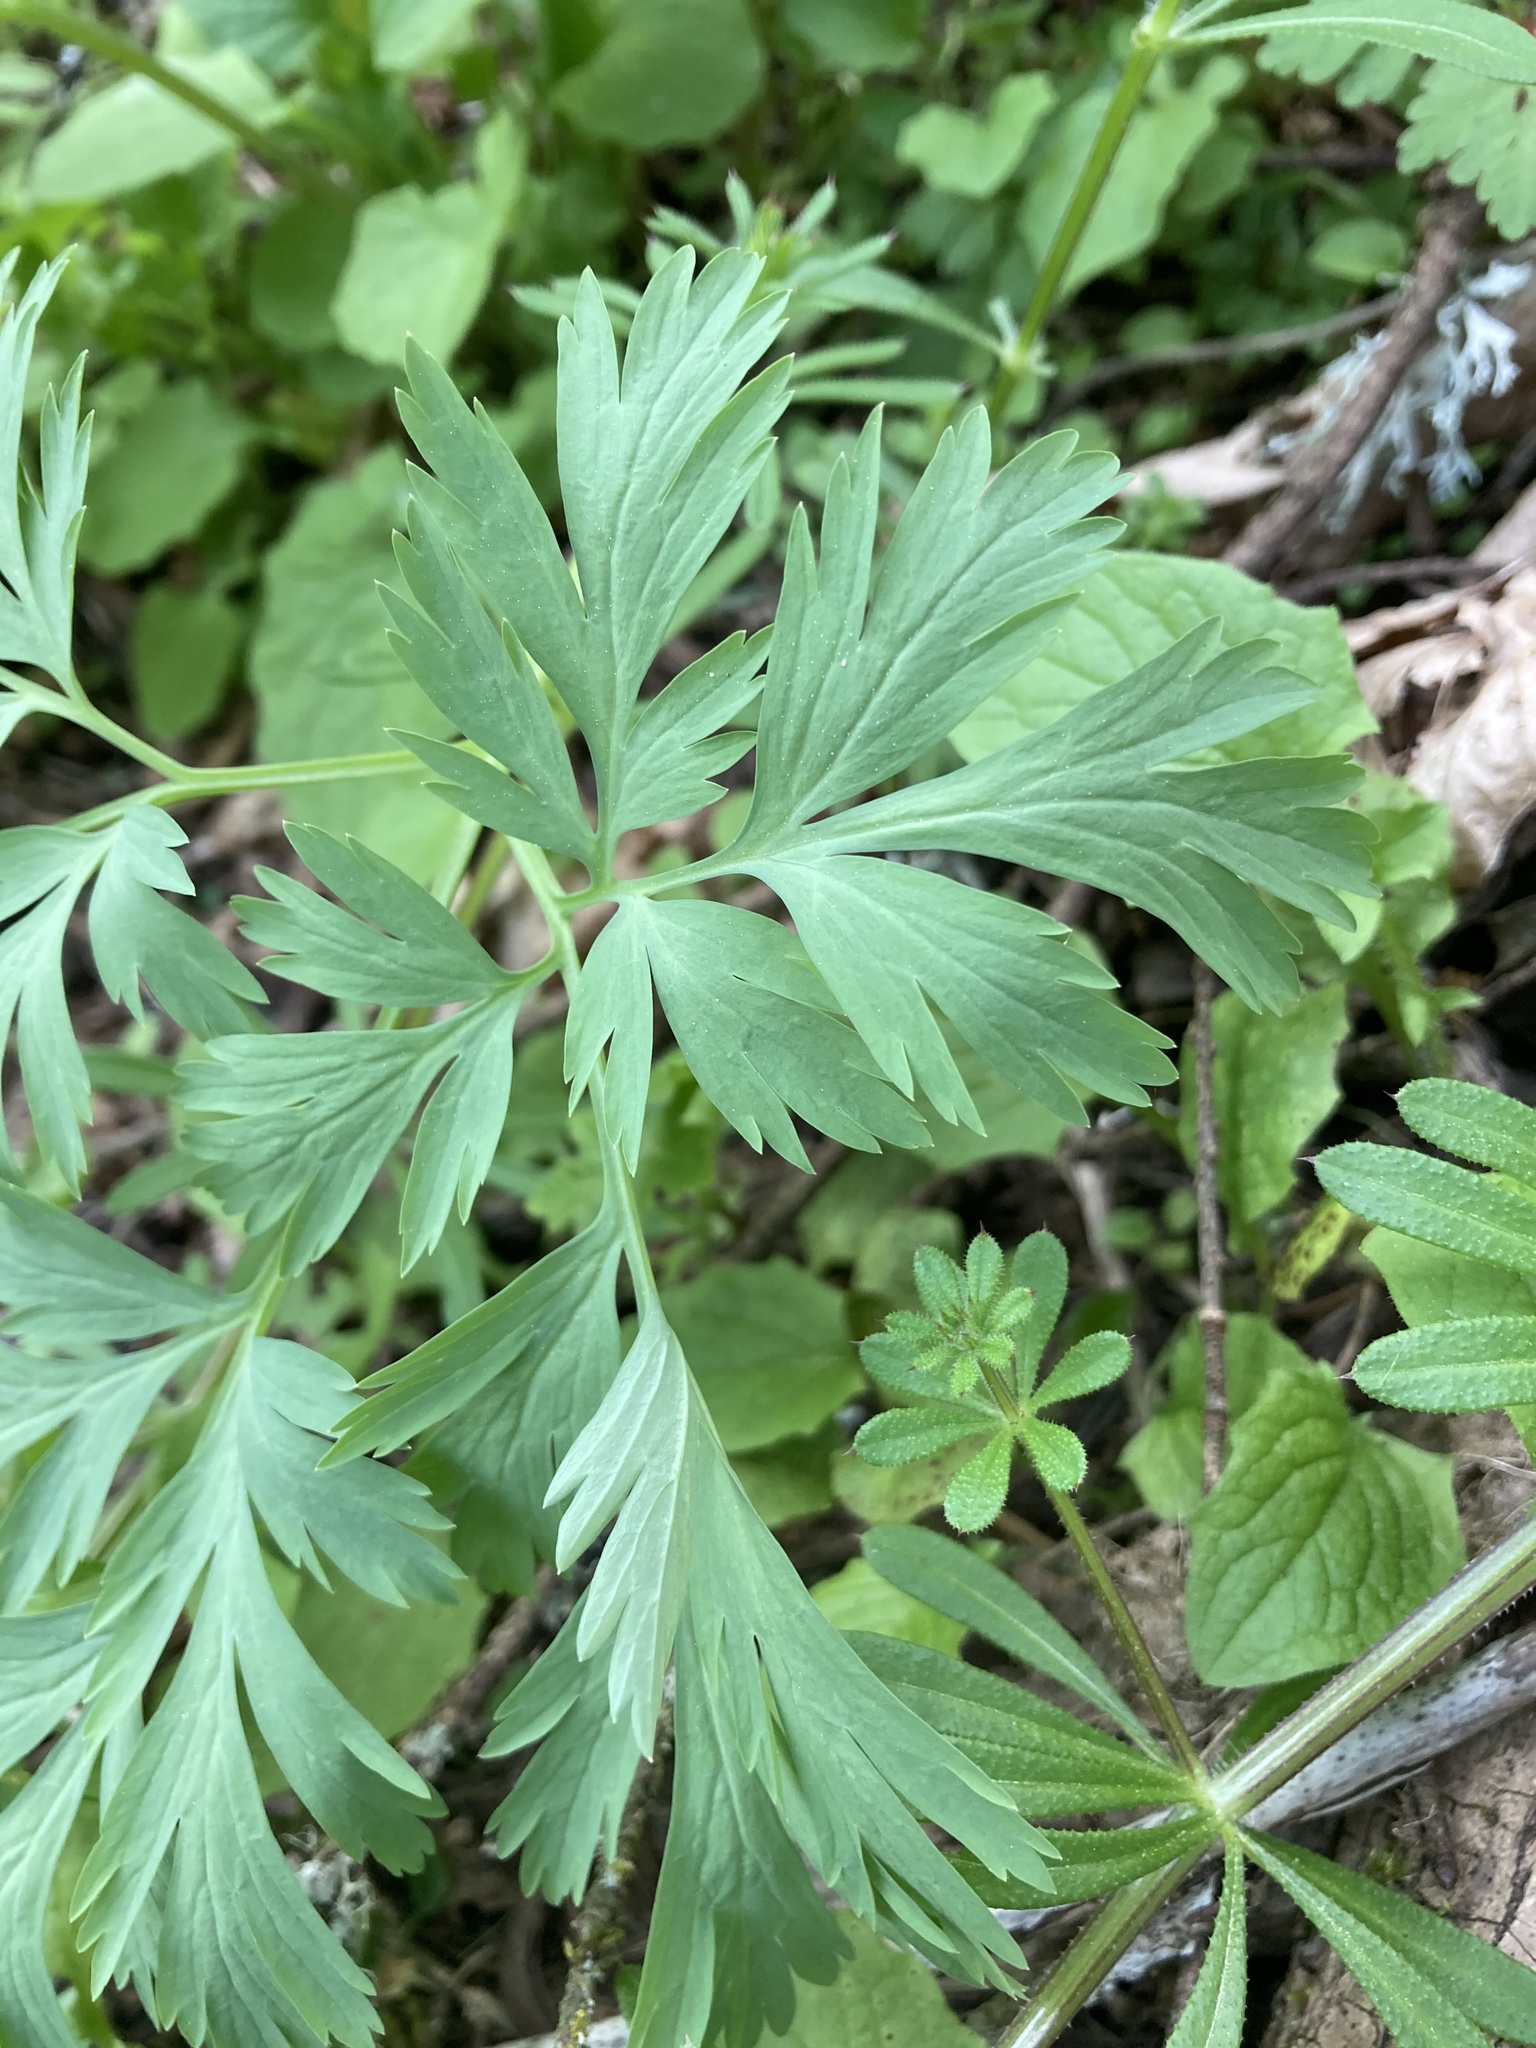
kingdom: Plantae
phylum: Tracheophyta
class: Magnoliopsida
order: Ranunculales
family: Papaveraceae
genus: Dicentra
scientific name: Dicentra formosa
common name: Bleeding-heart
